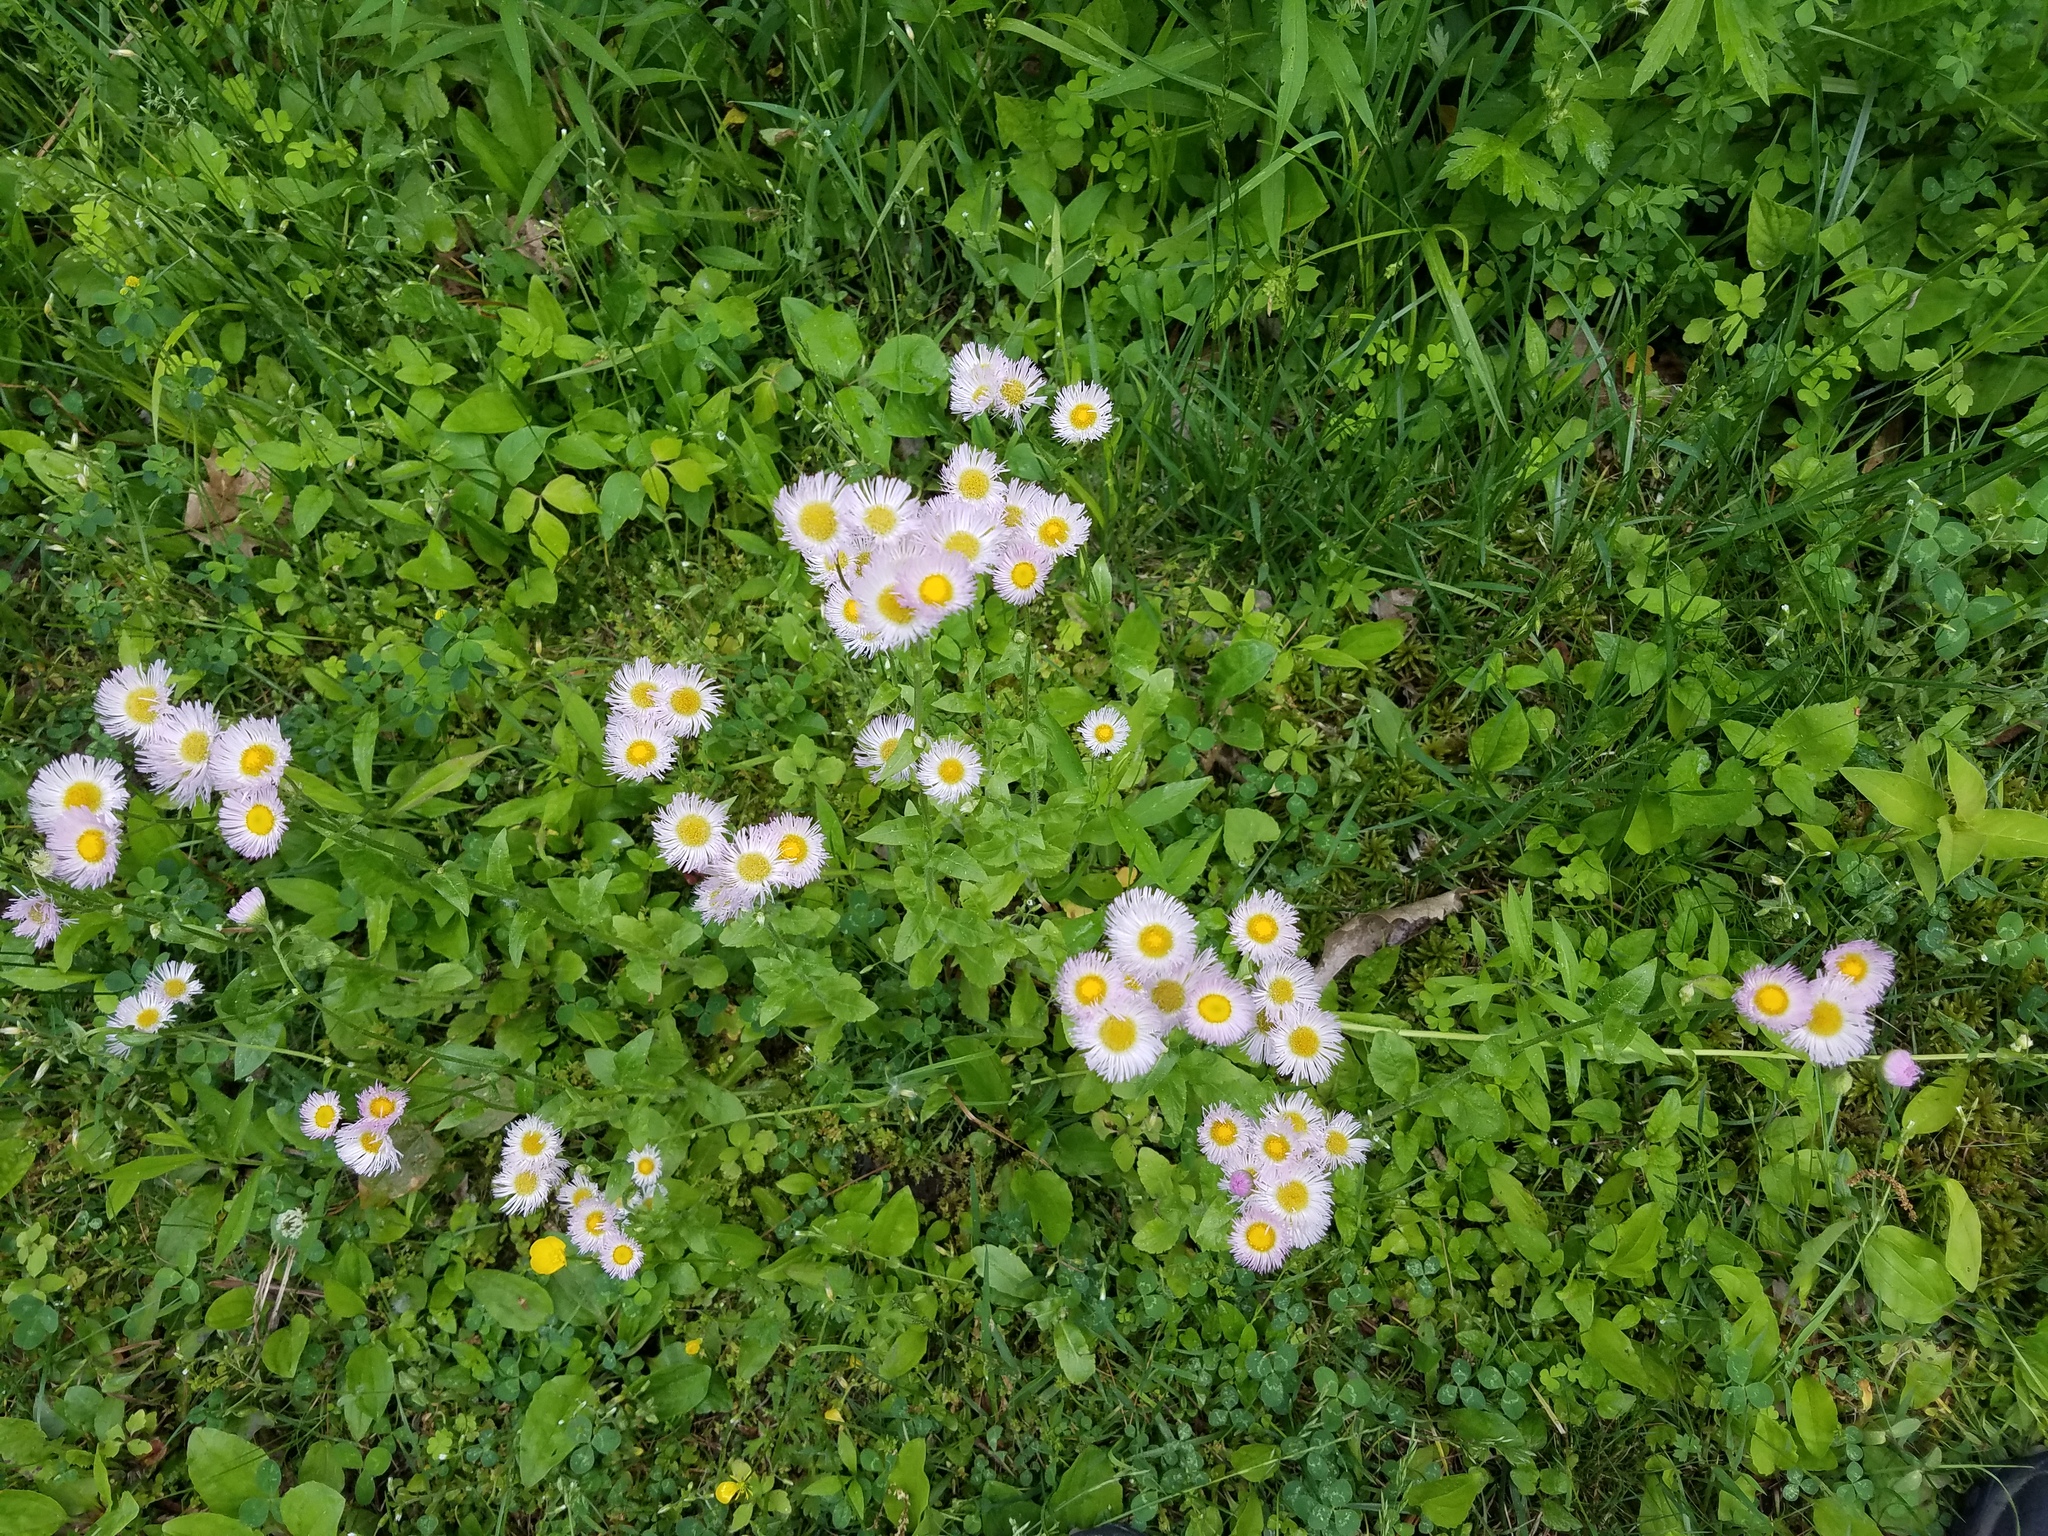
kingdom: Plantae
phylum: Tracheophyta
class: Magnoliopsida
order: Asterales
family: Asteraceae
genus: Erigeron
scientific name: Erigeron philadelphicus
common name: Robin's-plantain
